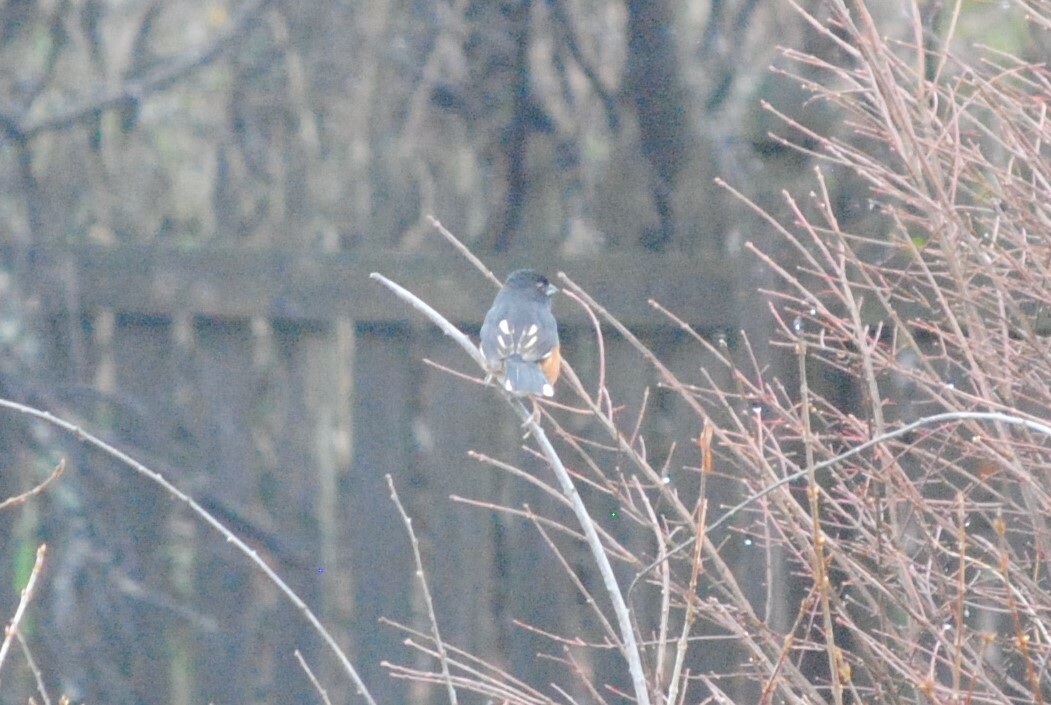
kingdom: Animalia
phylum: Chordata
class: Aves
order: Passeriformes
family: Passerellidae
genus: Pipilo
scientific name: Pipilo erythrophthalmus
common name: Eastern towhee
